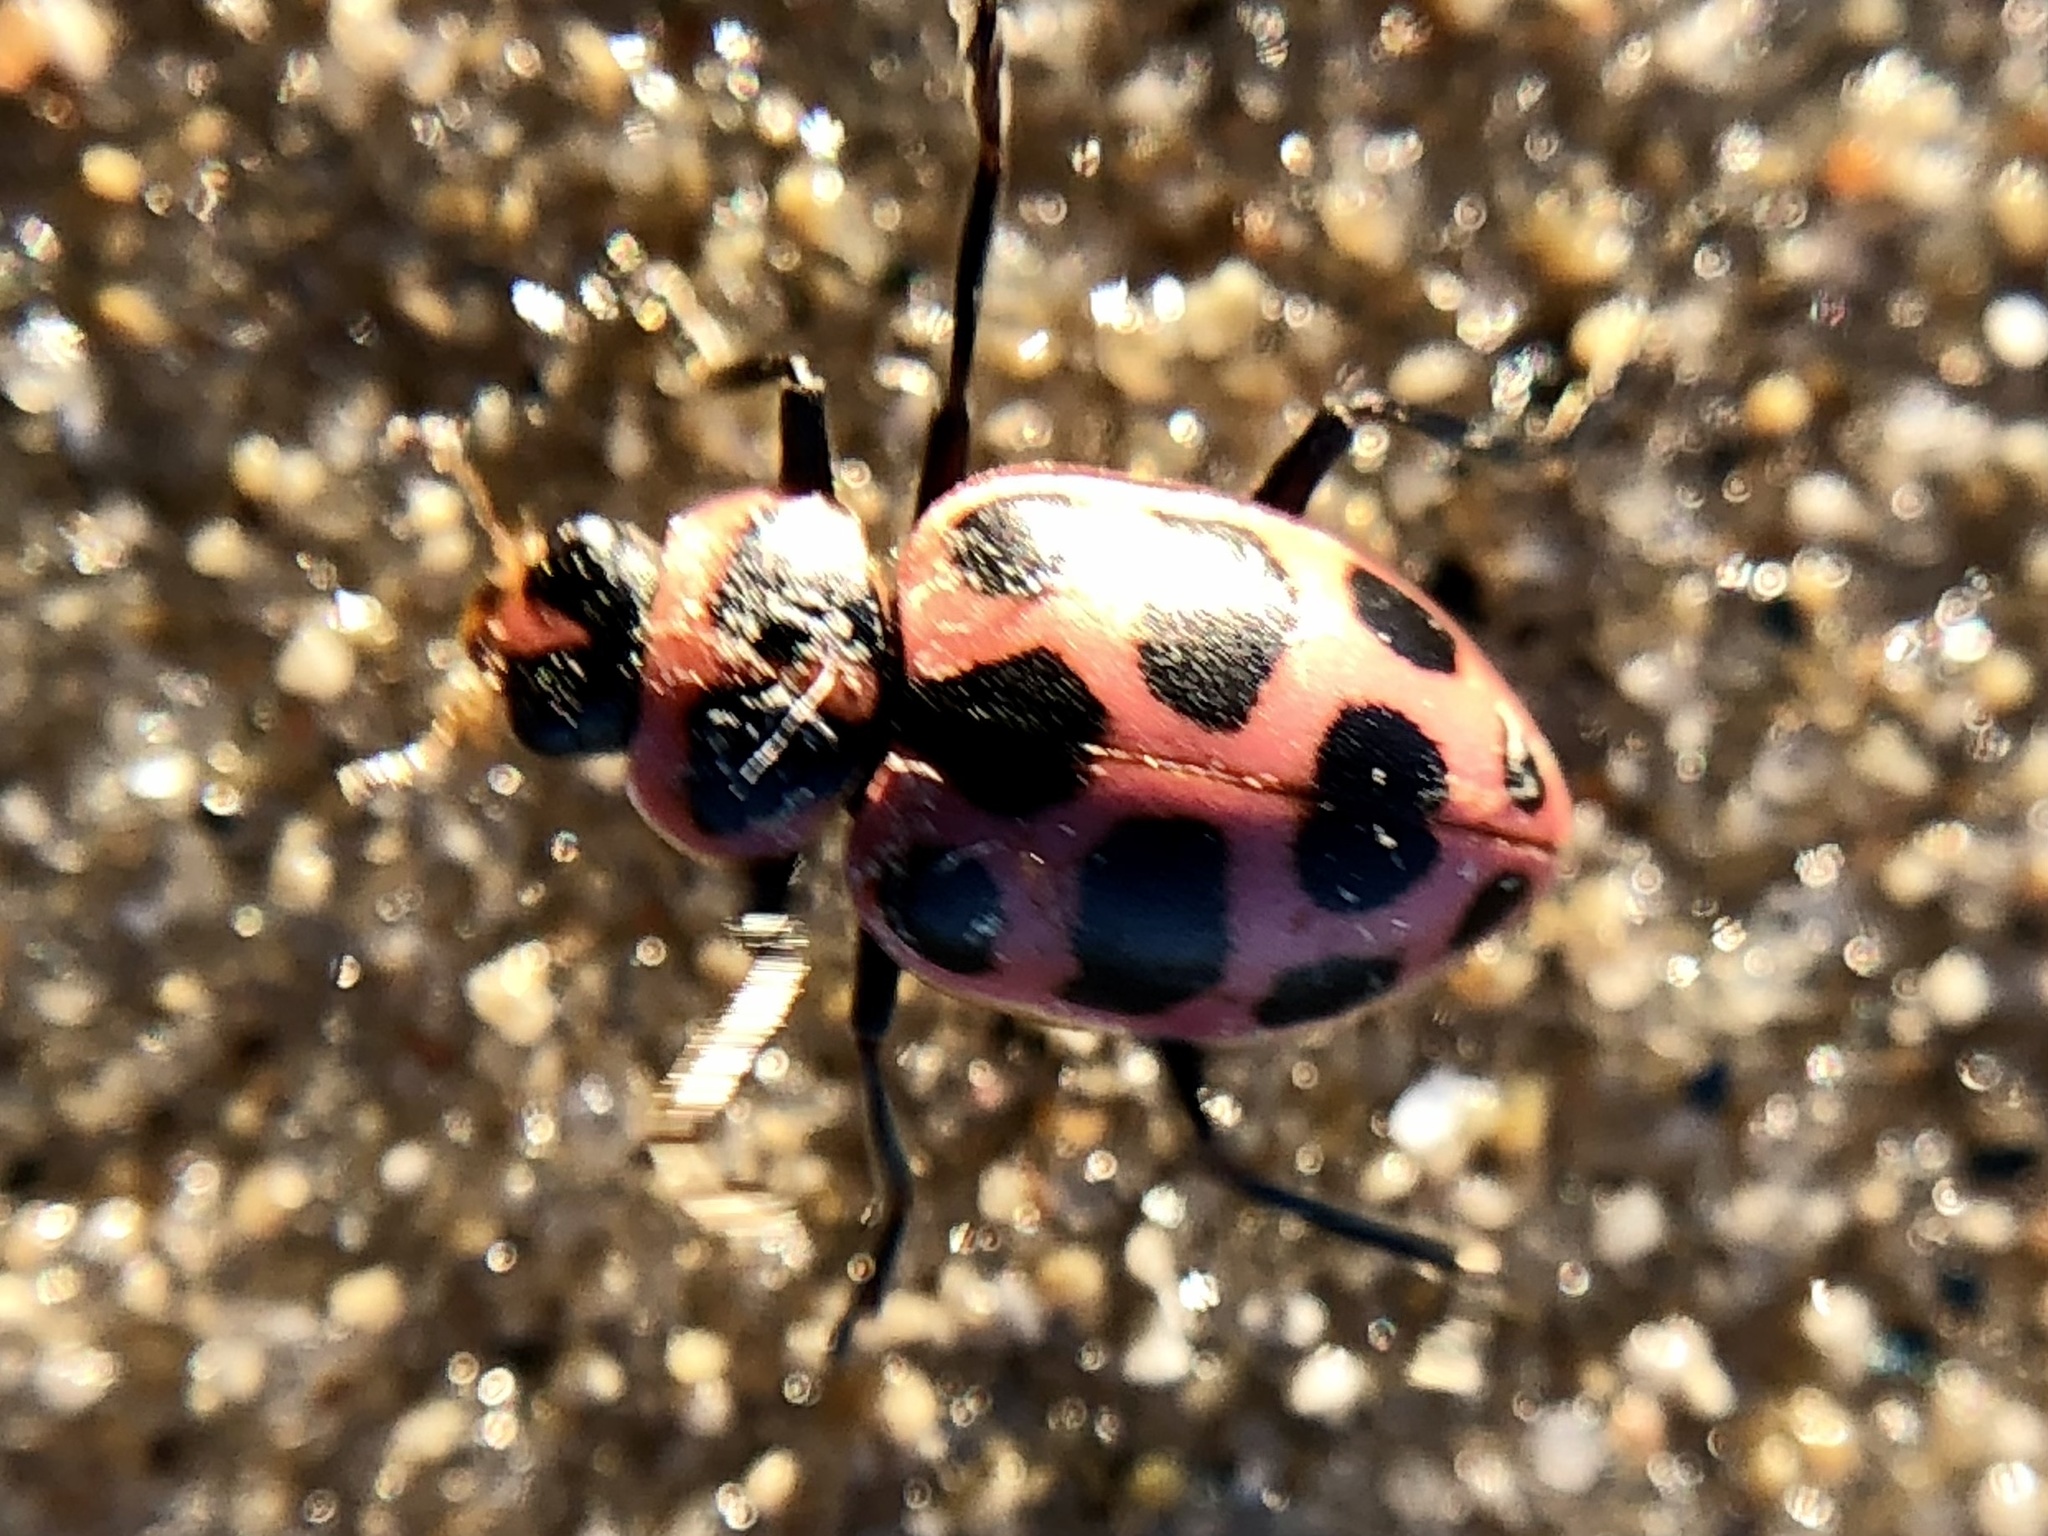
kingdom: Animalia
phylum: Arthropoda
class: Insecta
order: Coleoptera
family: Coccinellidae
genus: Coleomegilla
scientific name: Coleomegilla maculata
